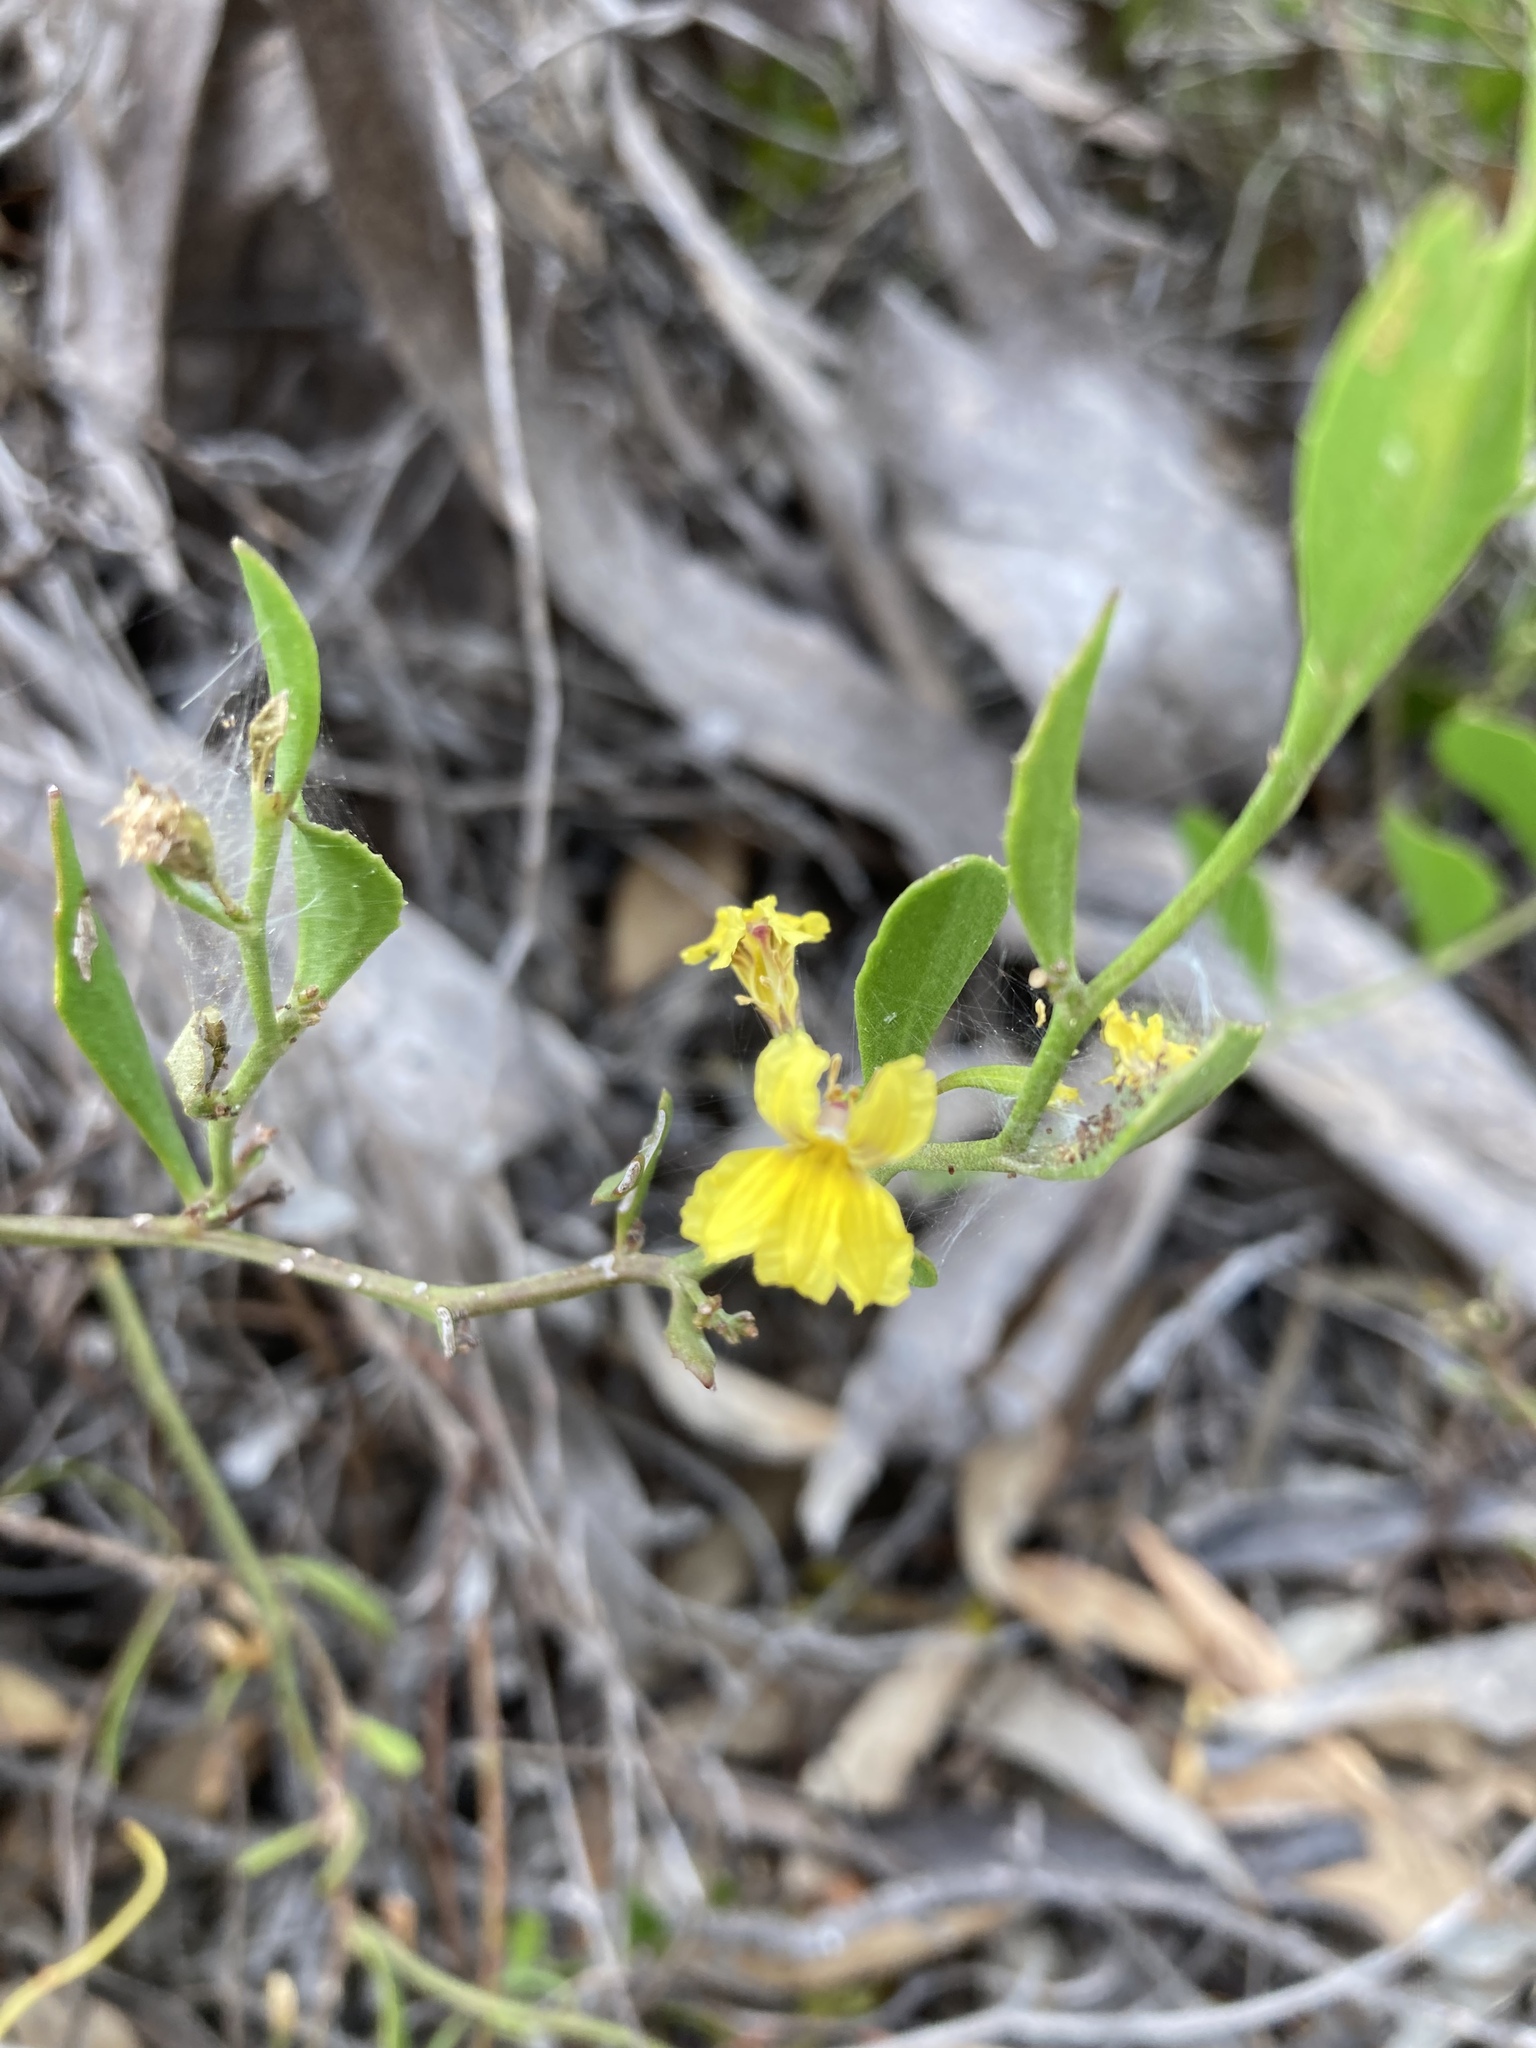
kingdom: Plantae
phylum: Tracheophyta
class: Magnoliopsida
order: Asterales
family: Goodeniaceae
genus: Goodenia
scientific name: Goodenia varia
